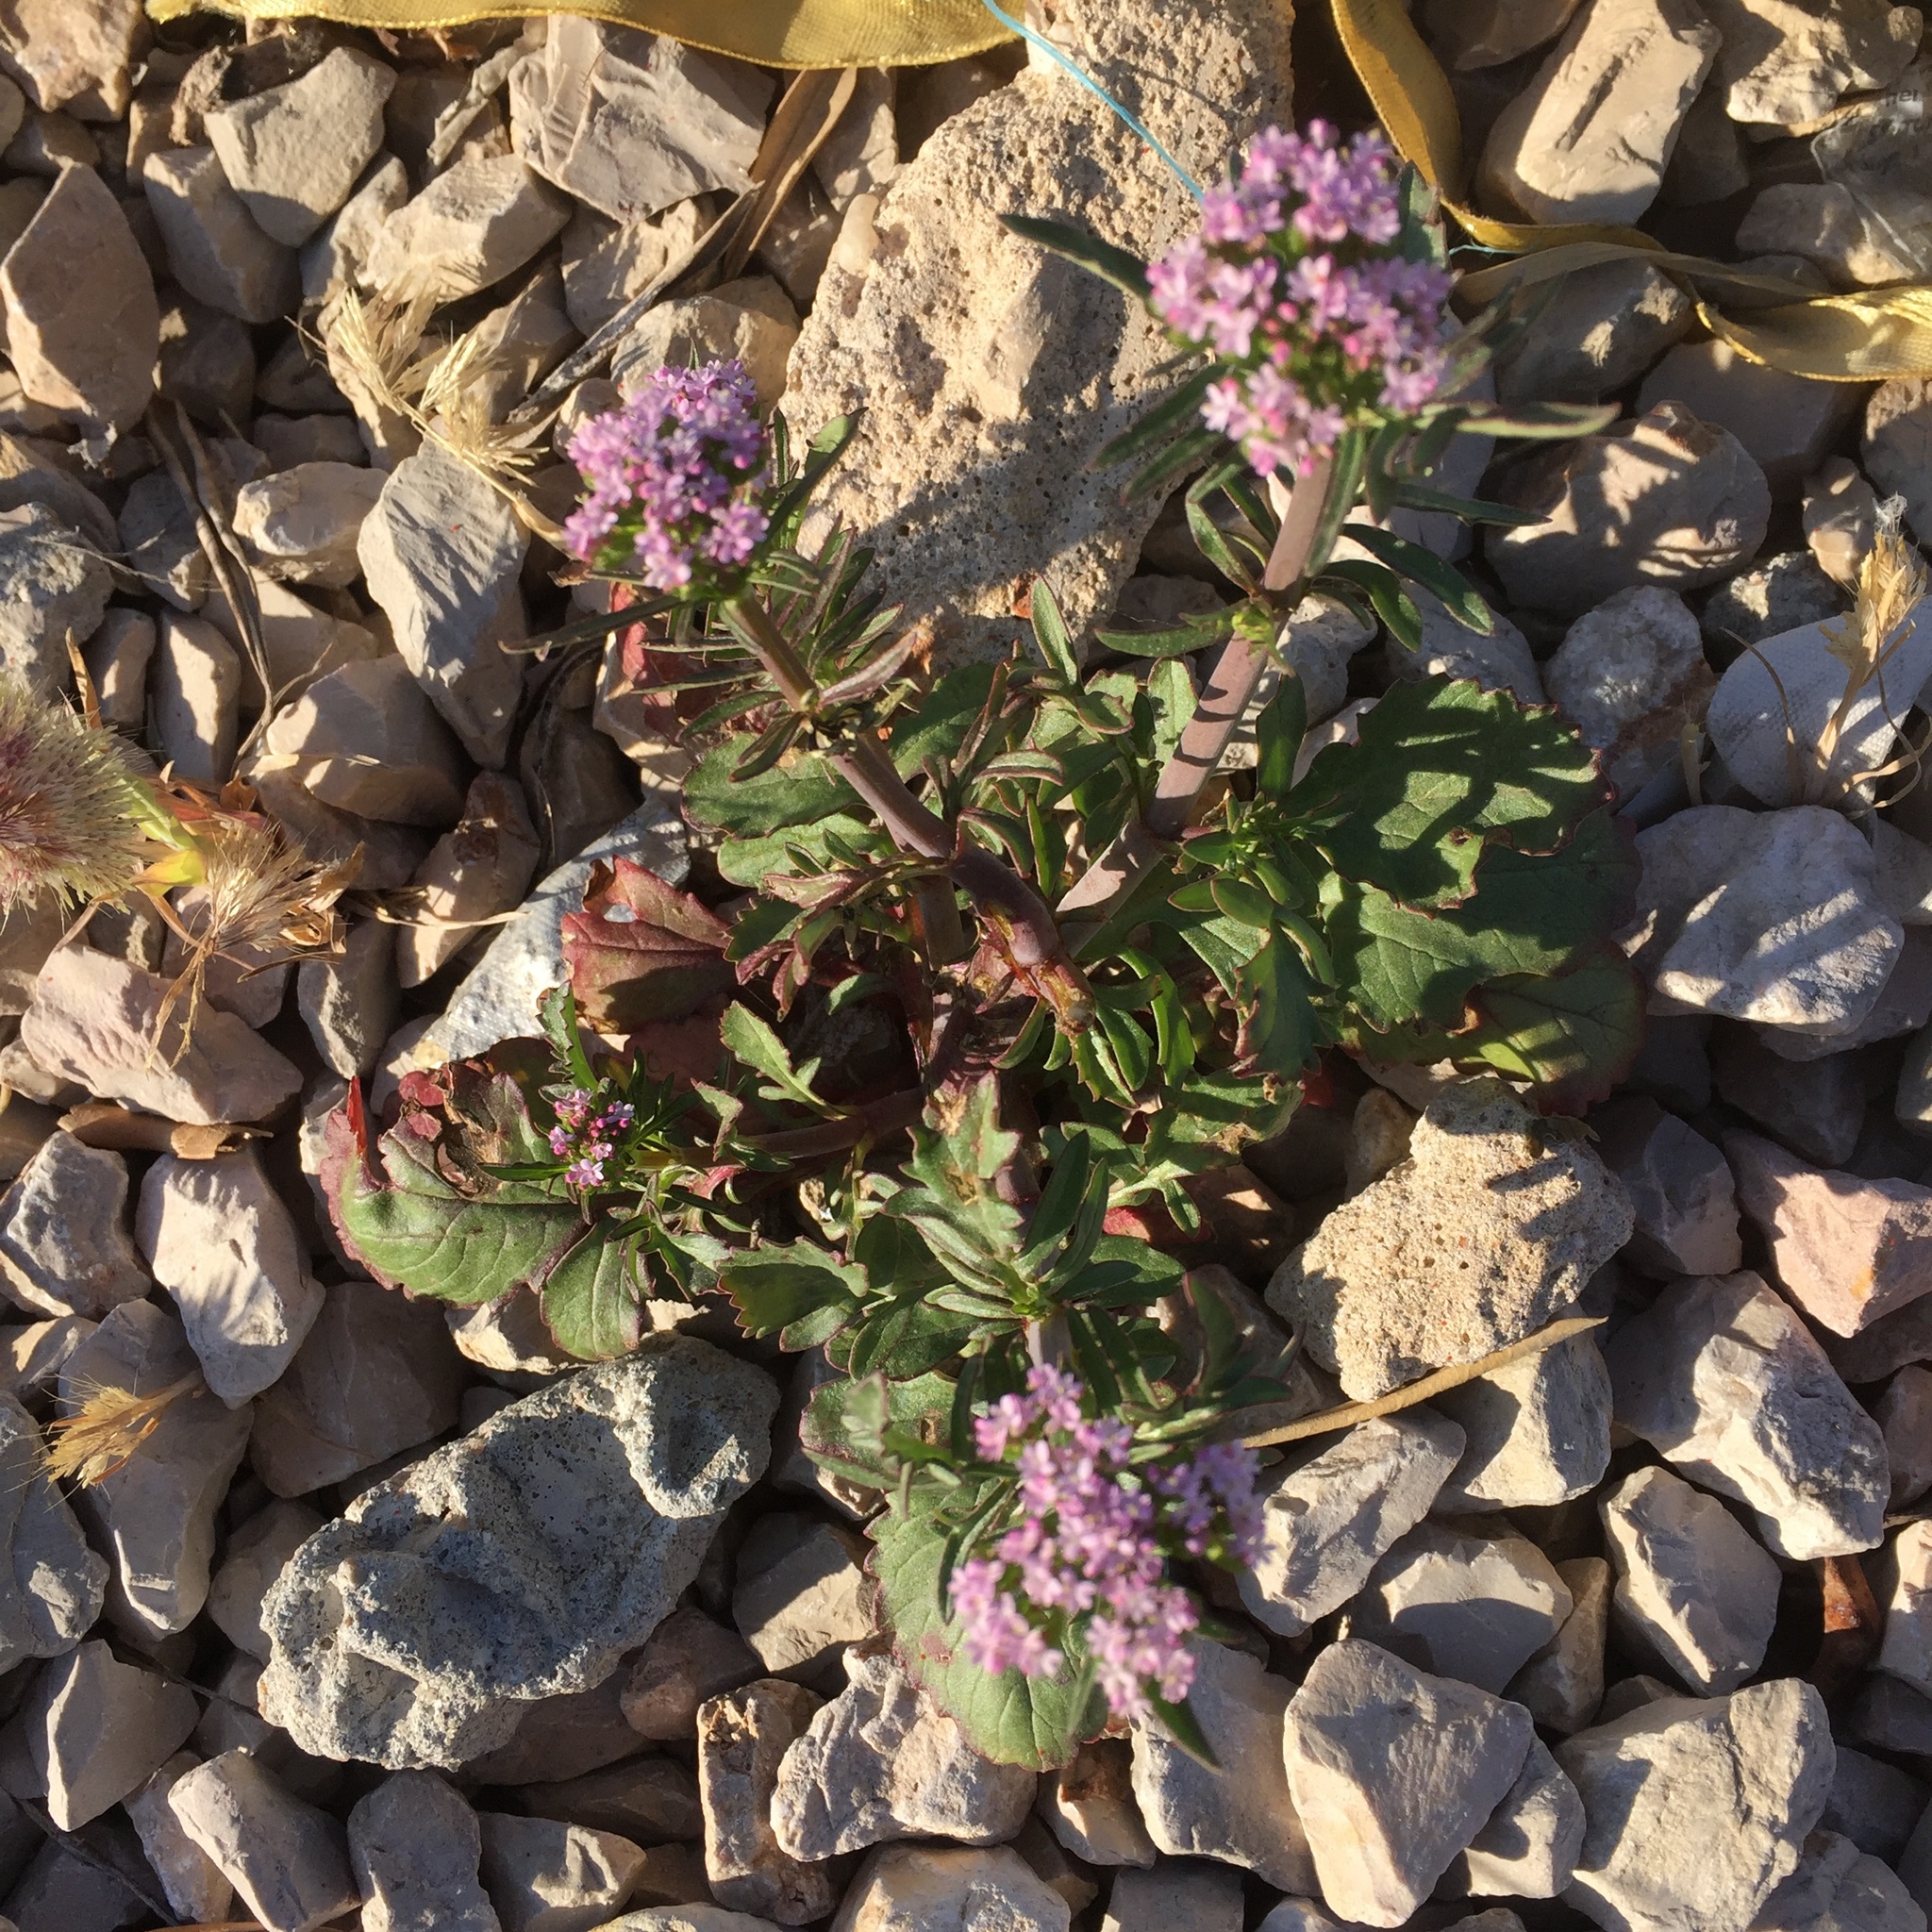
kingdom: Plantae
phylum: Tracheophyta
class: Magnoliopsida
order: Dipsacales
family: Caprifoliaceae
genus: Centranthus
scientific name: Centranthus calcitrapae
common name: Annual valerian
